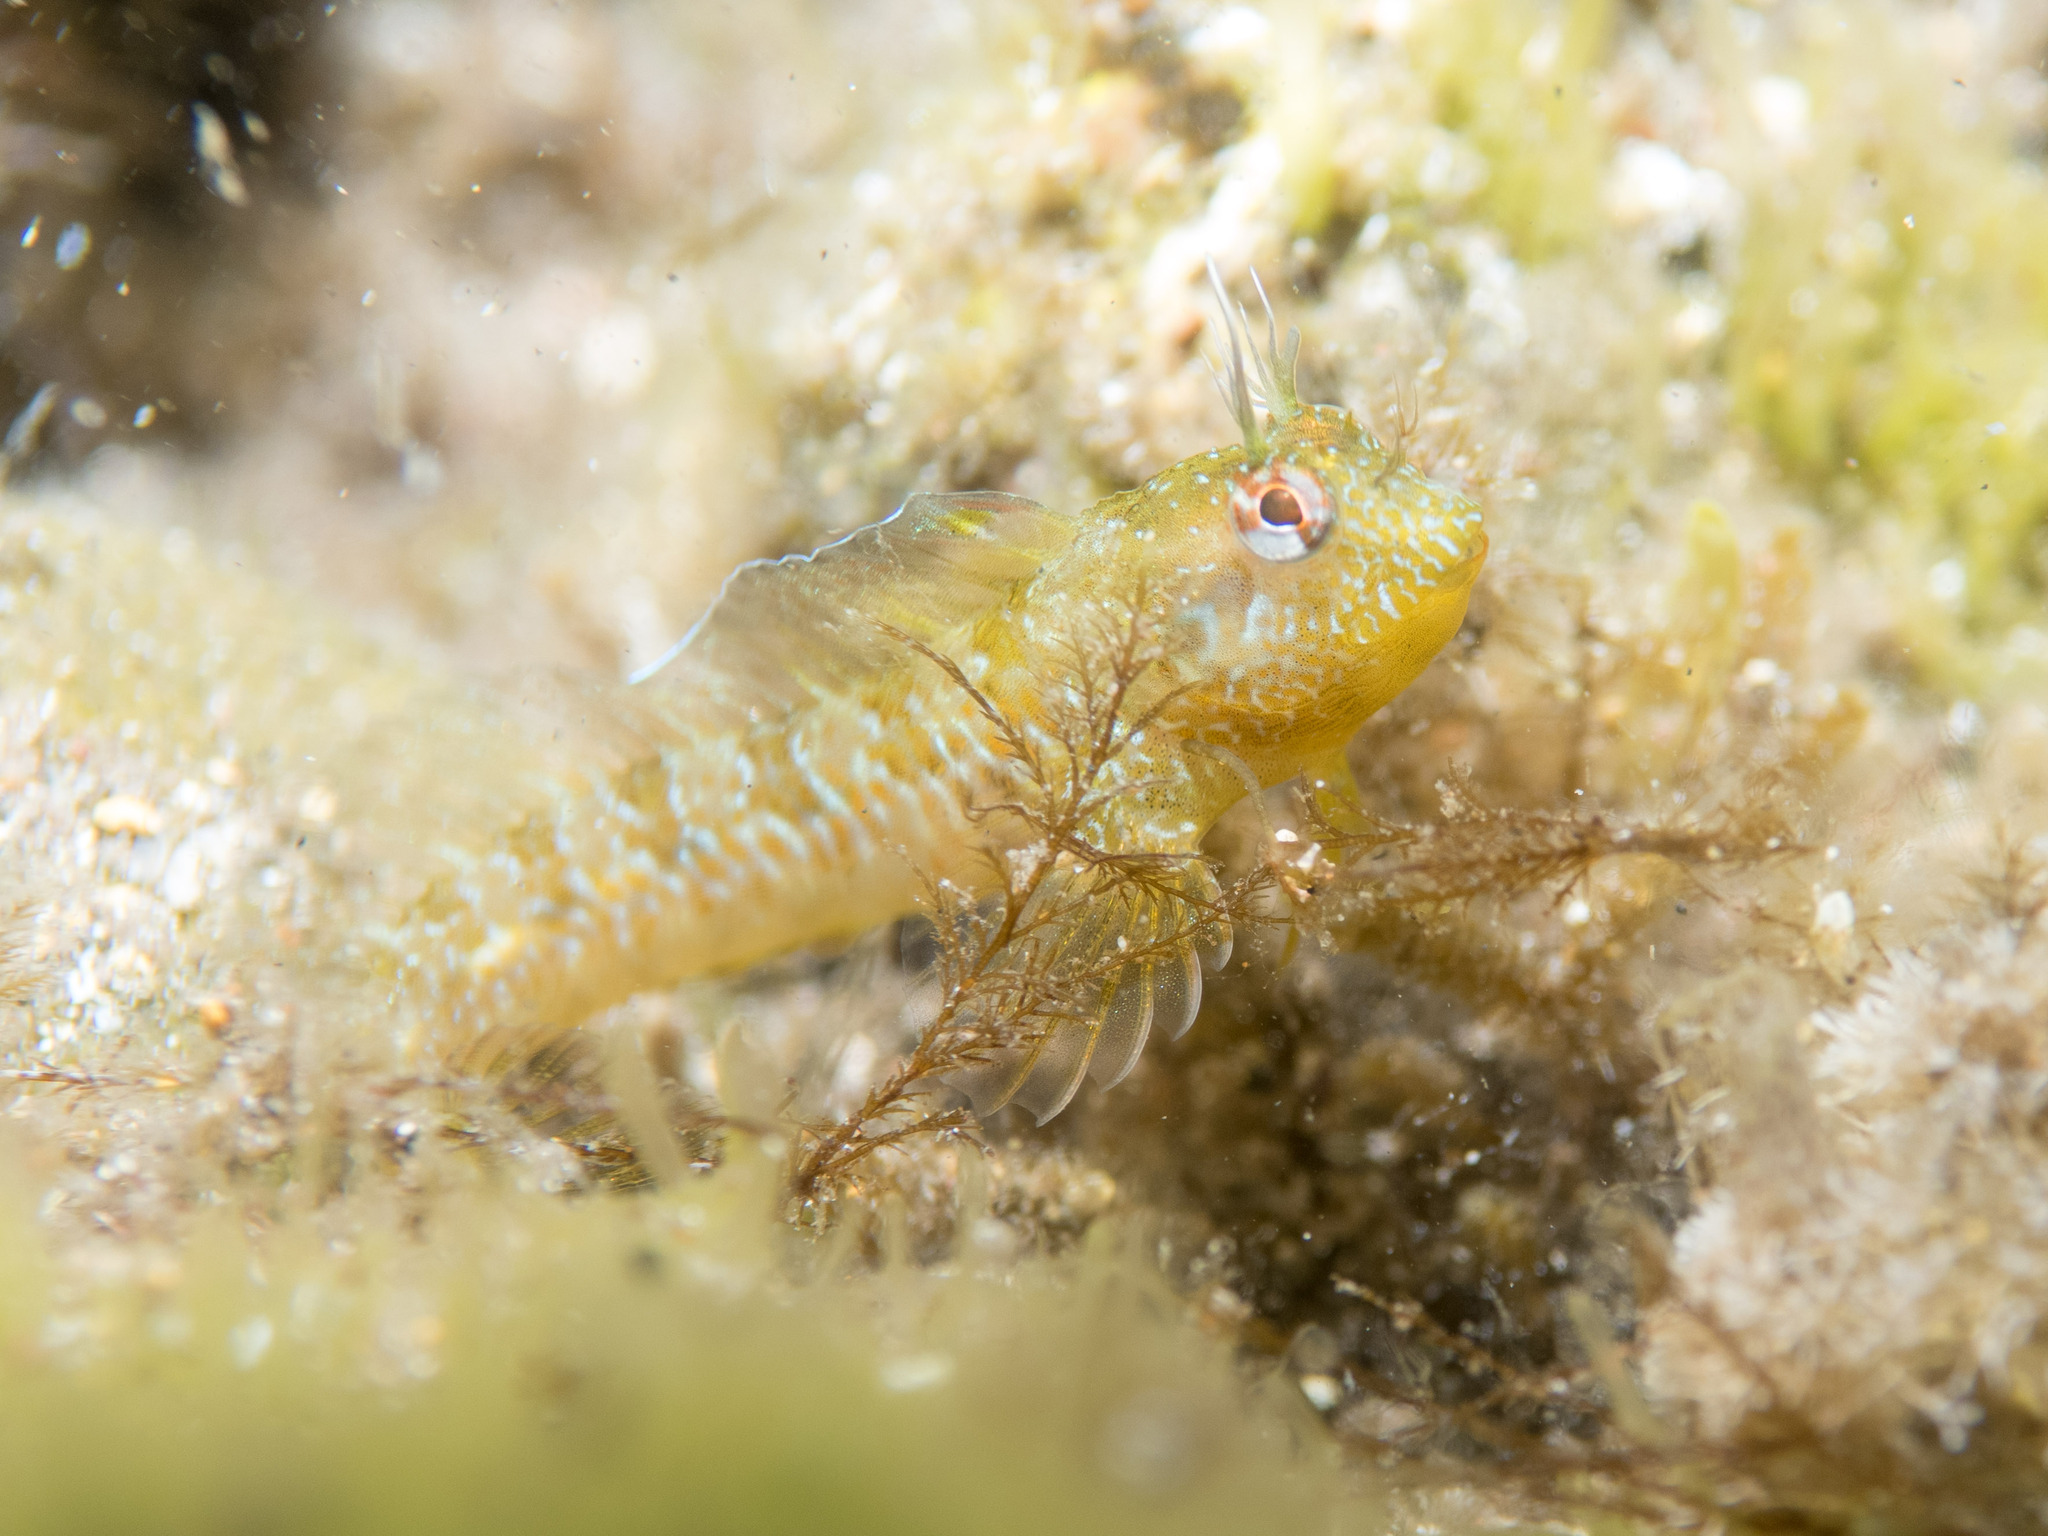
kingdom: Animalia
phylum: Chordata
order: Perciformes
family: Blenniidae
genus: Parablennius
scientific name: Parablennius incognitus
